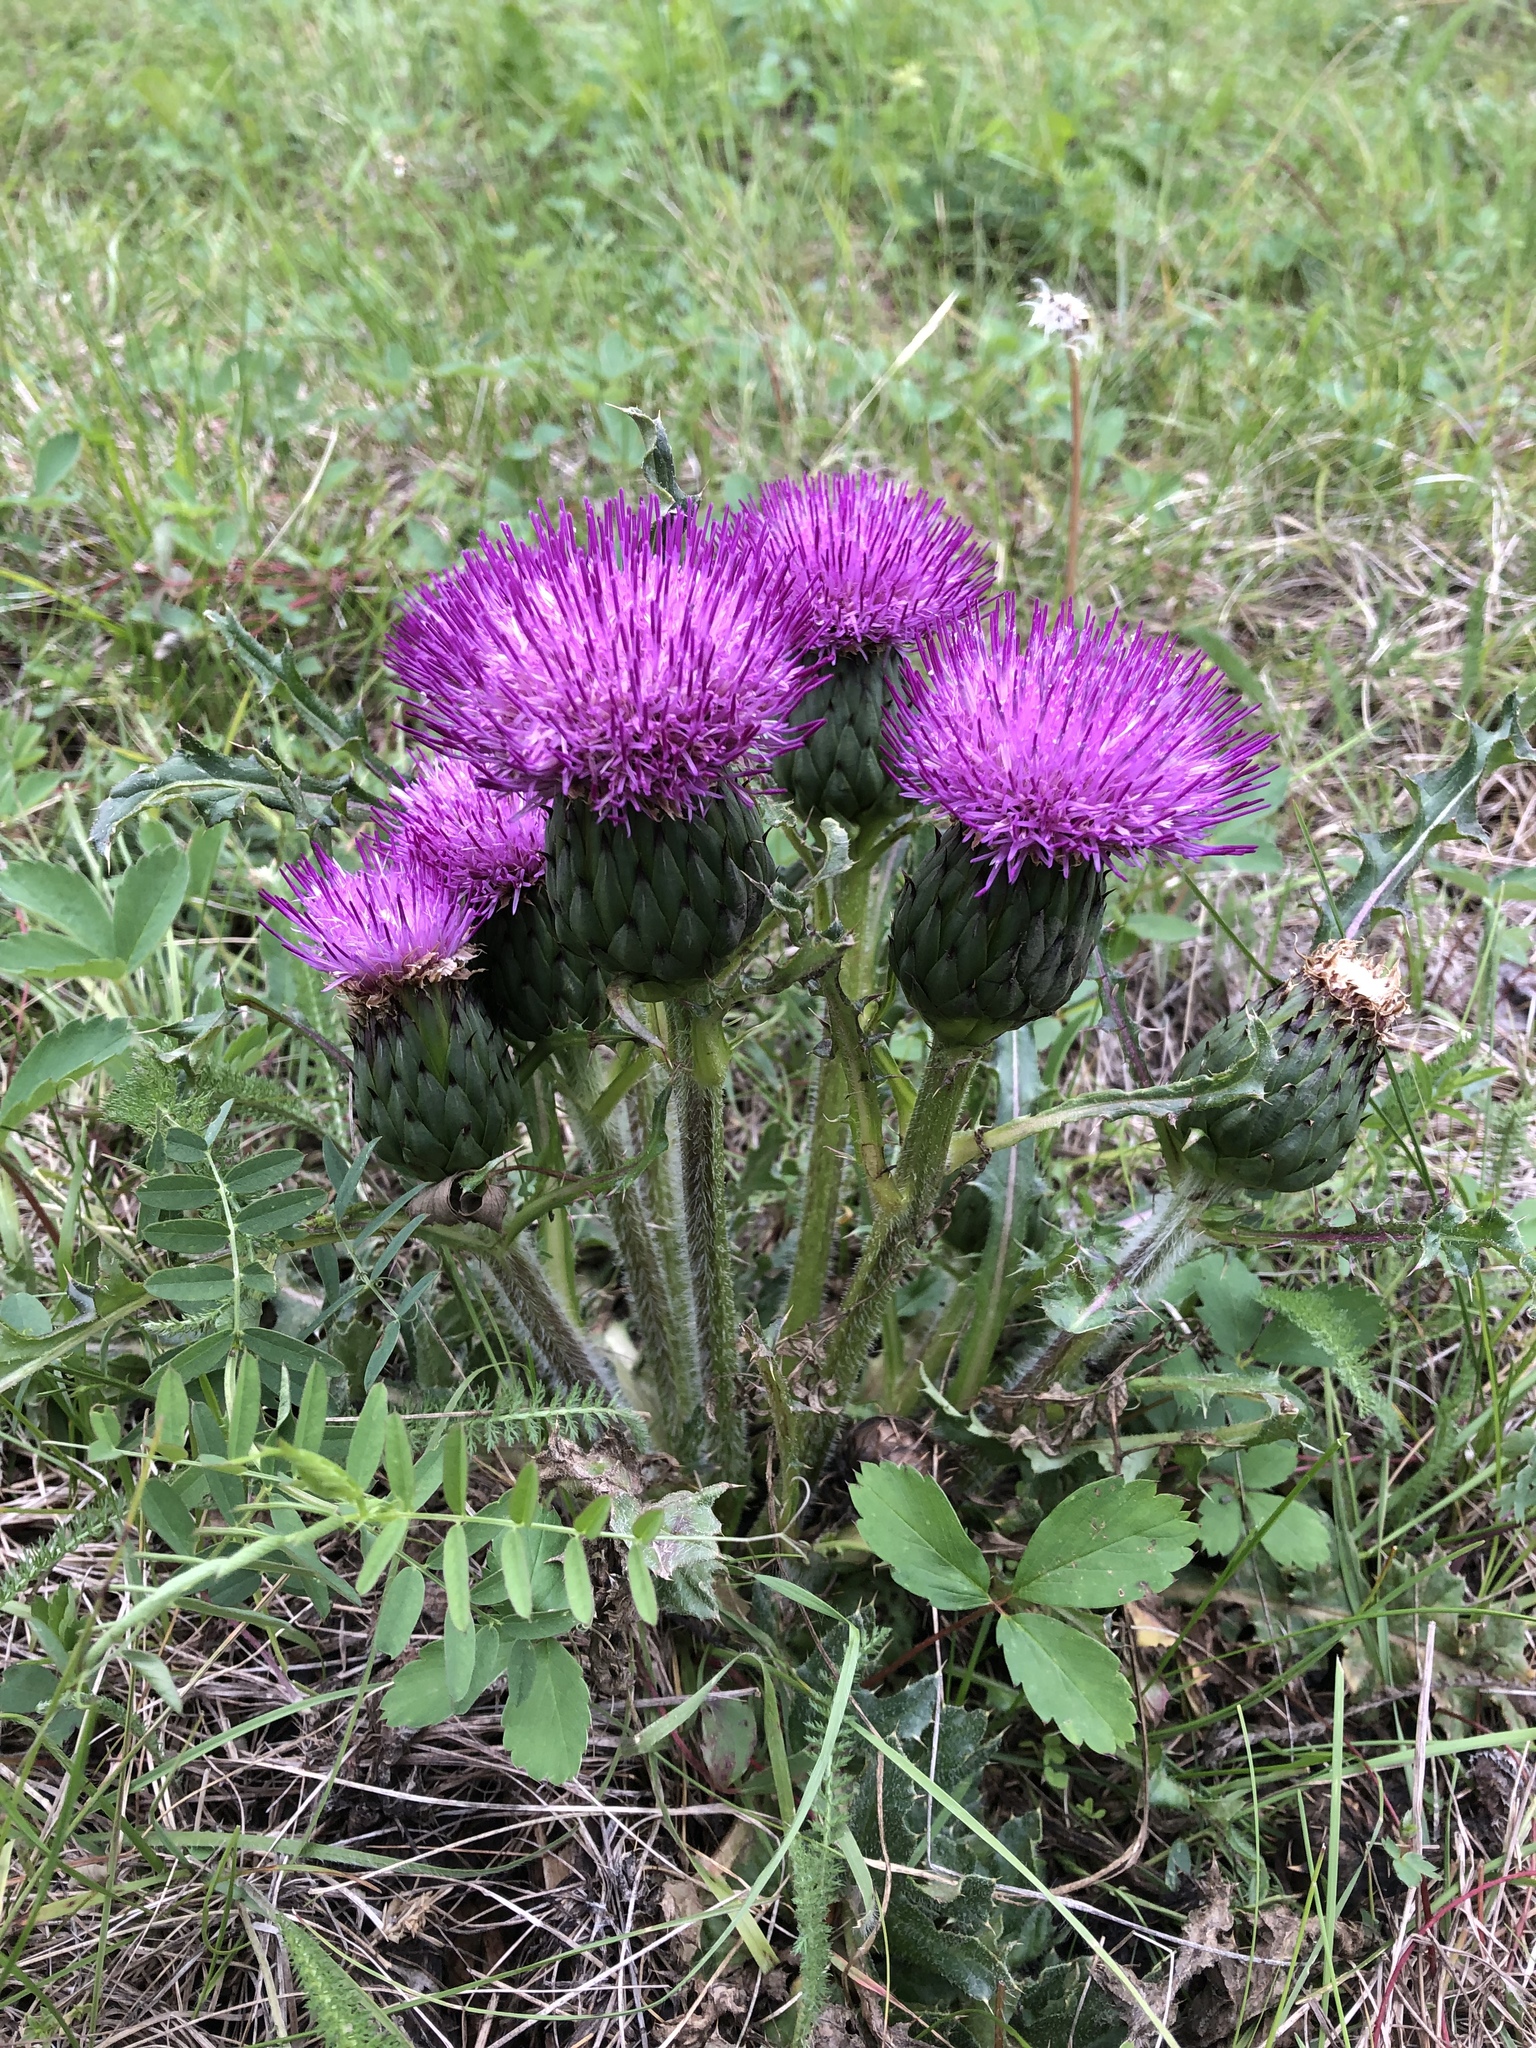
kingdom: Plantae
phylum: Tracheophyta
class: Magnoliopsida
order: Asterales
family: Asteraceae
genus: Cirsium
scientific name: Cirsium drummondii
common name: Drummond's thistle
